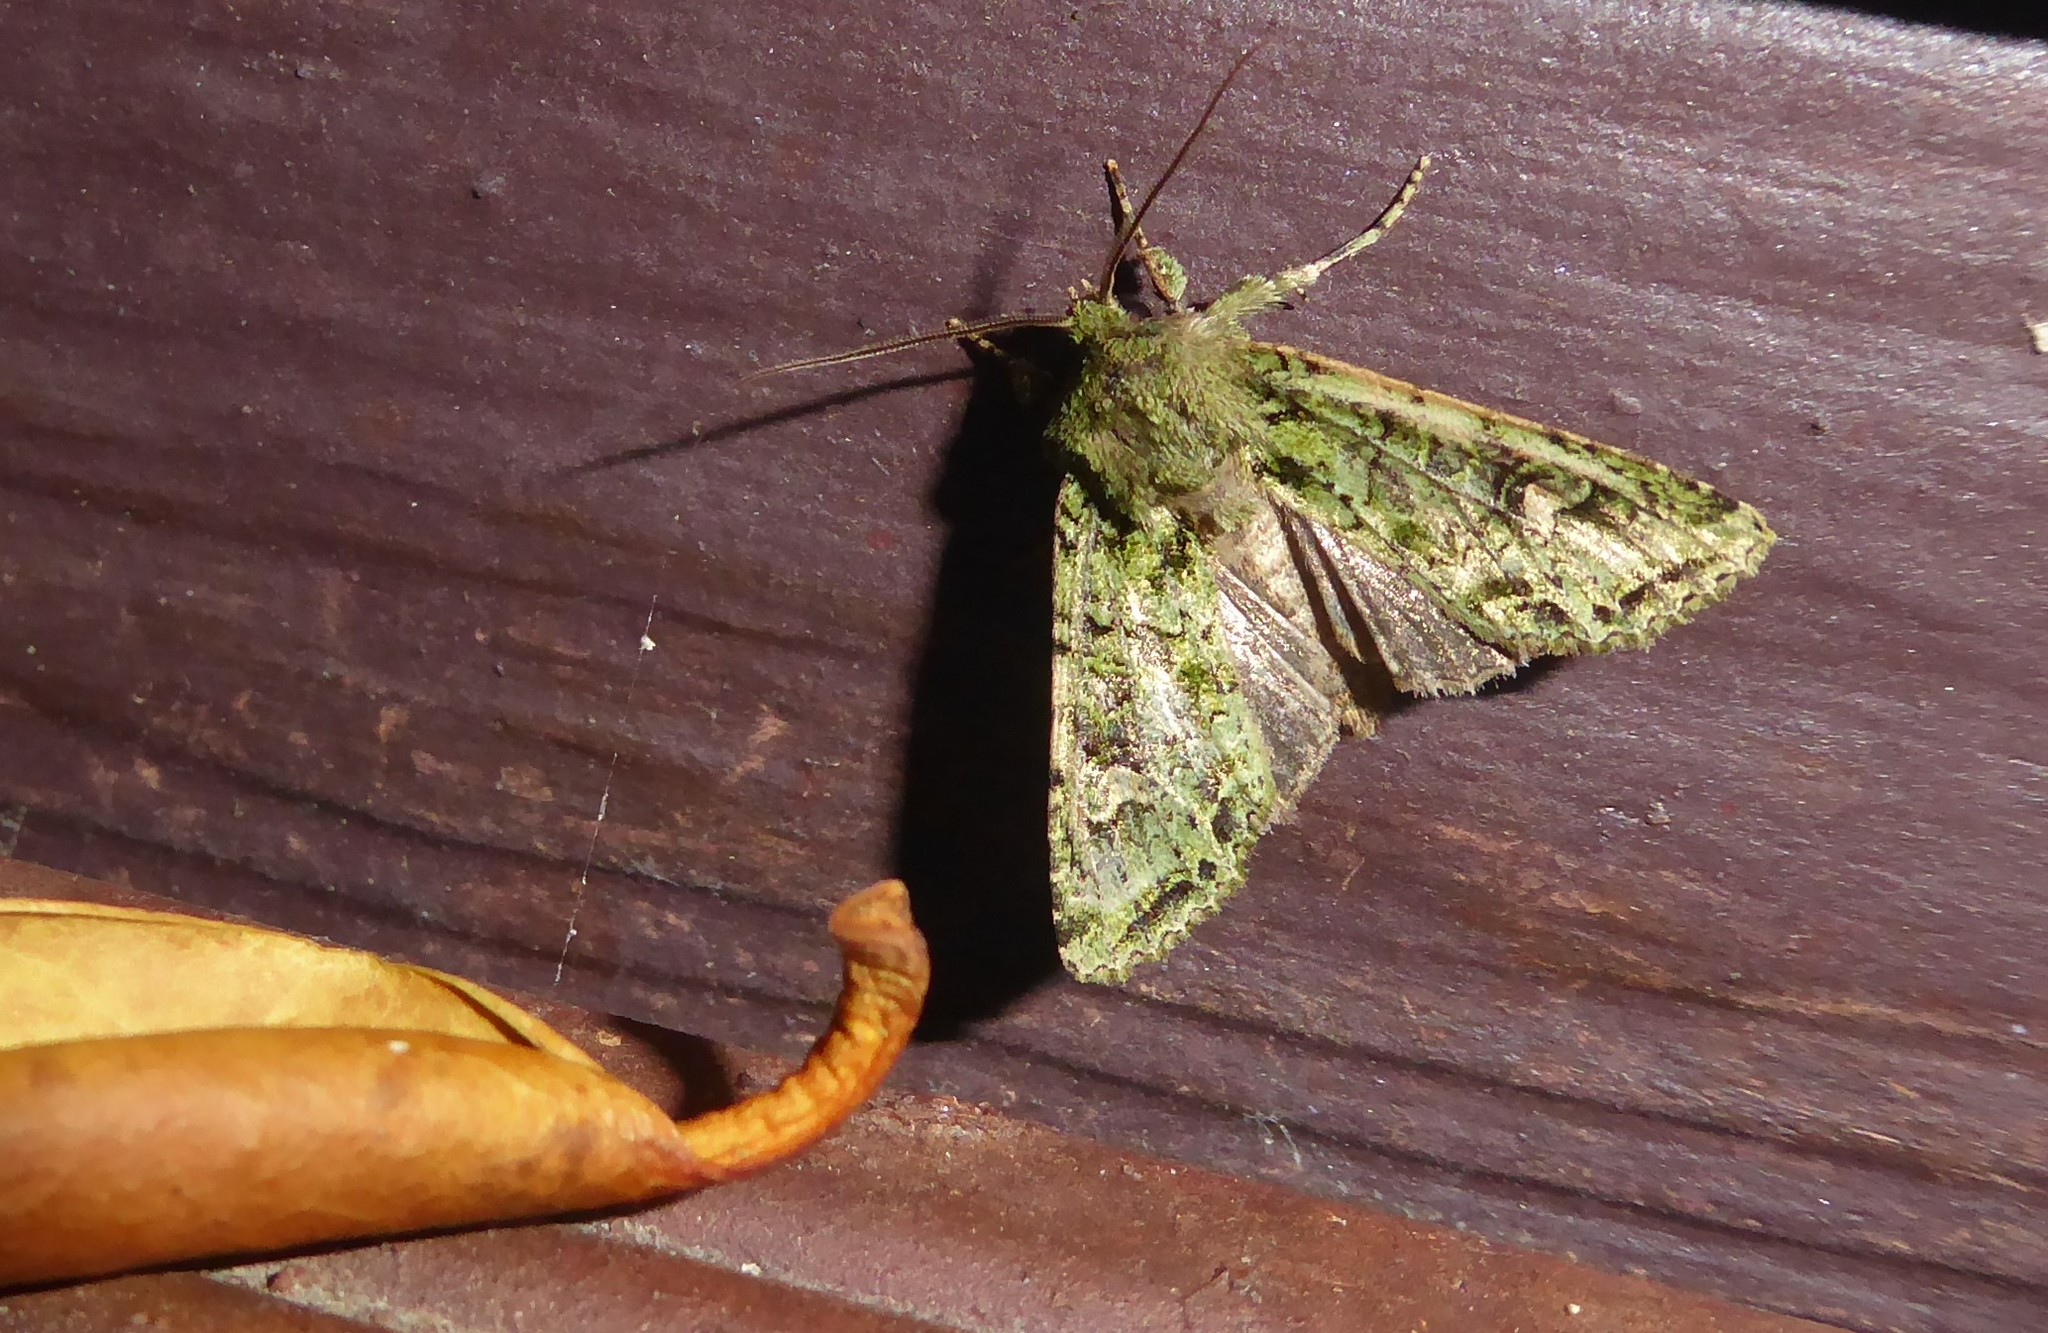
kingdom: Animalia
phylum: Arthropoda
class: Insecta
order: Lepidoptera
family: Noctuidae
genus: Ichneutica
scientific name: Ichneutica
